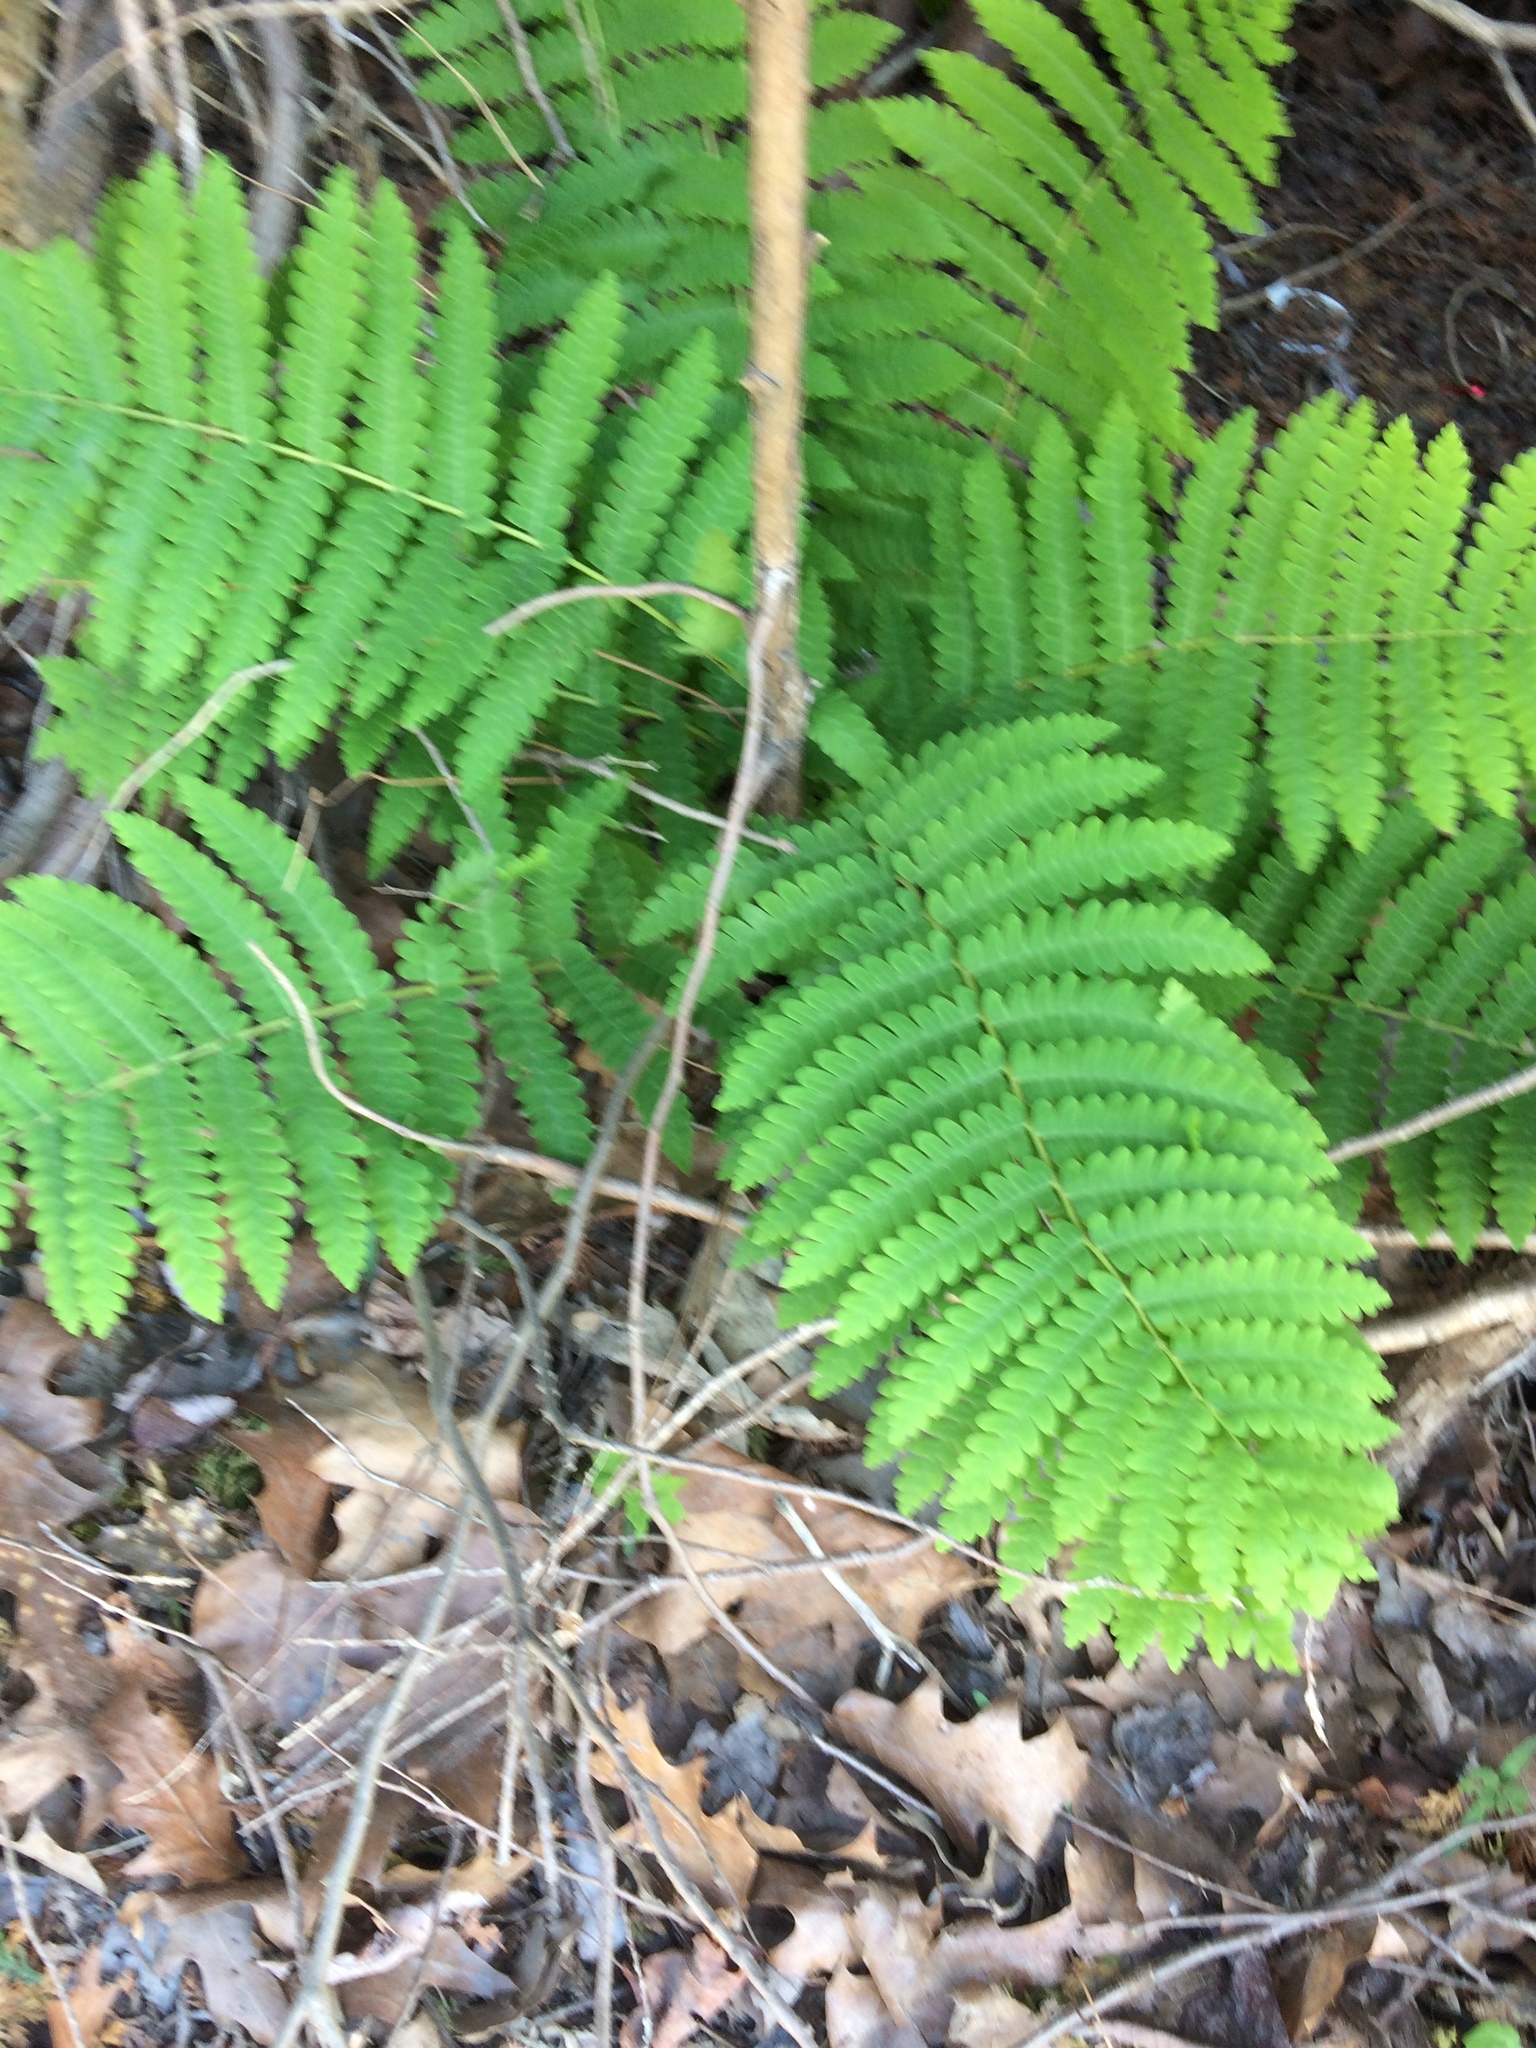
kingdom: Plantae
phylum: Tracheophyta
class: Polypodiopsida
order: Osmundales
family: Osmundaceae
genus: Claytosmunda
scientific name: Claytosmunda claytoniana
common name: Clayton's fern
